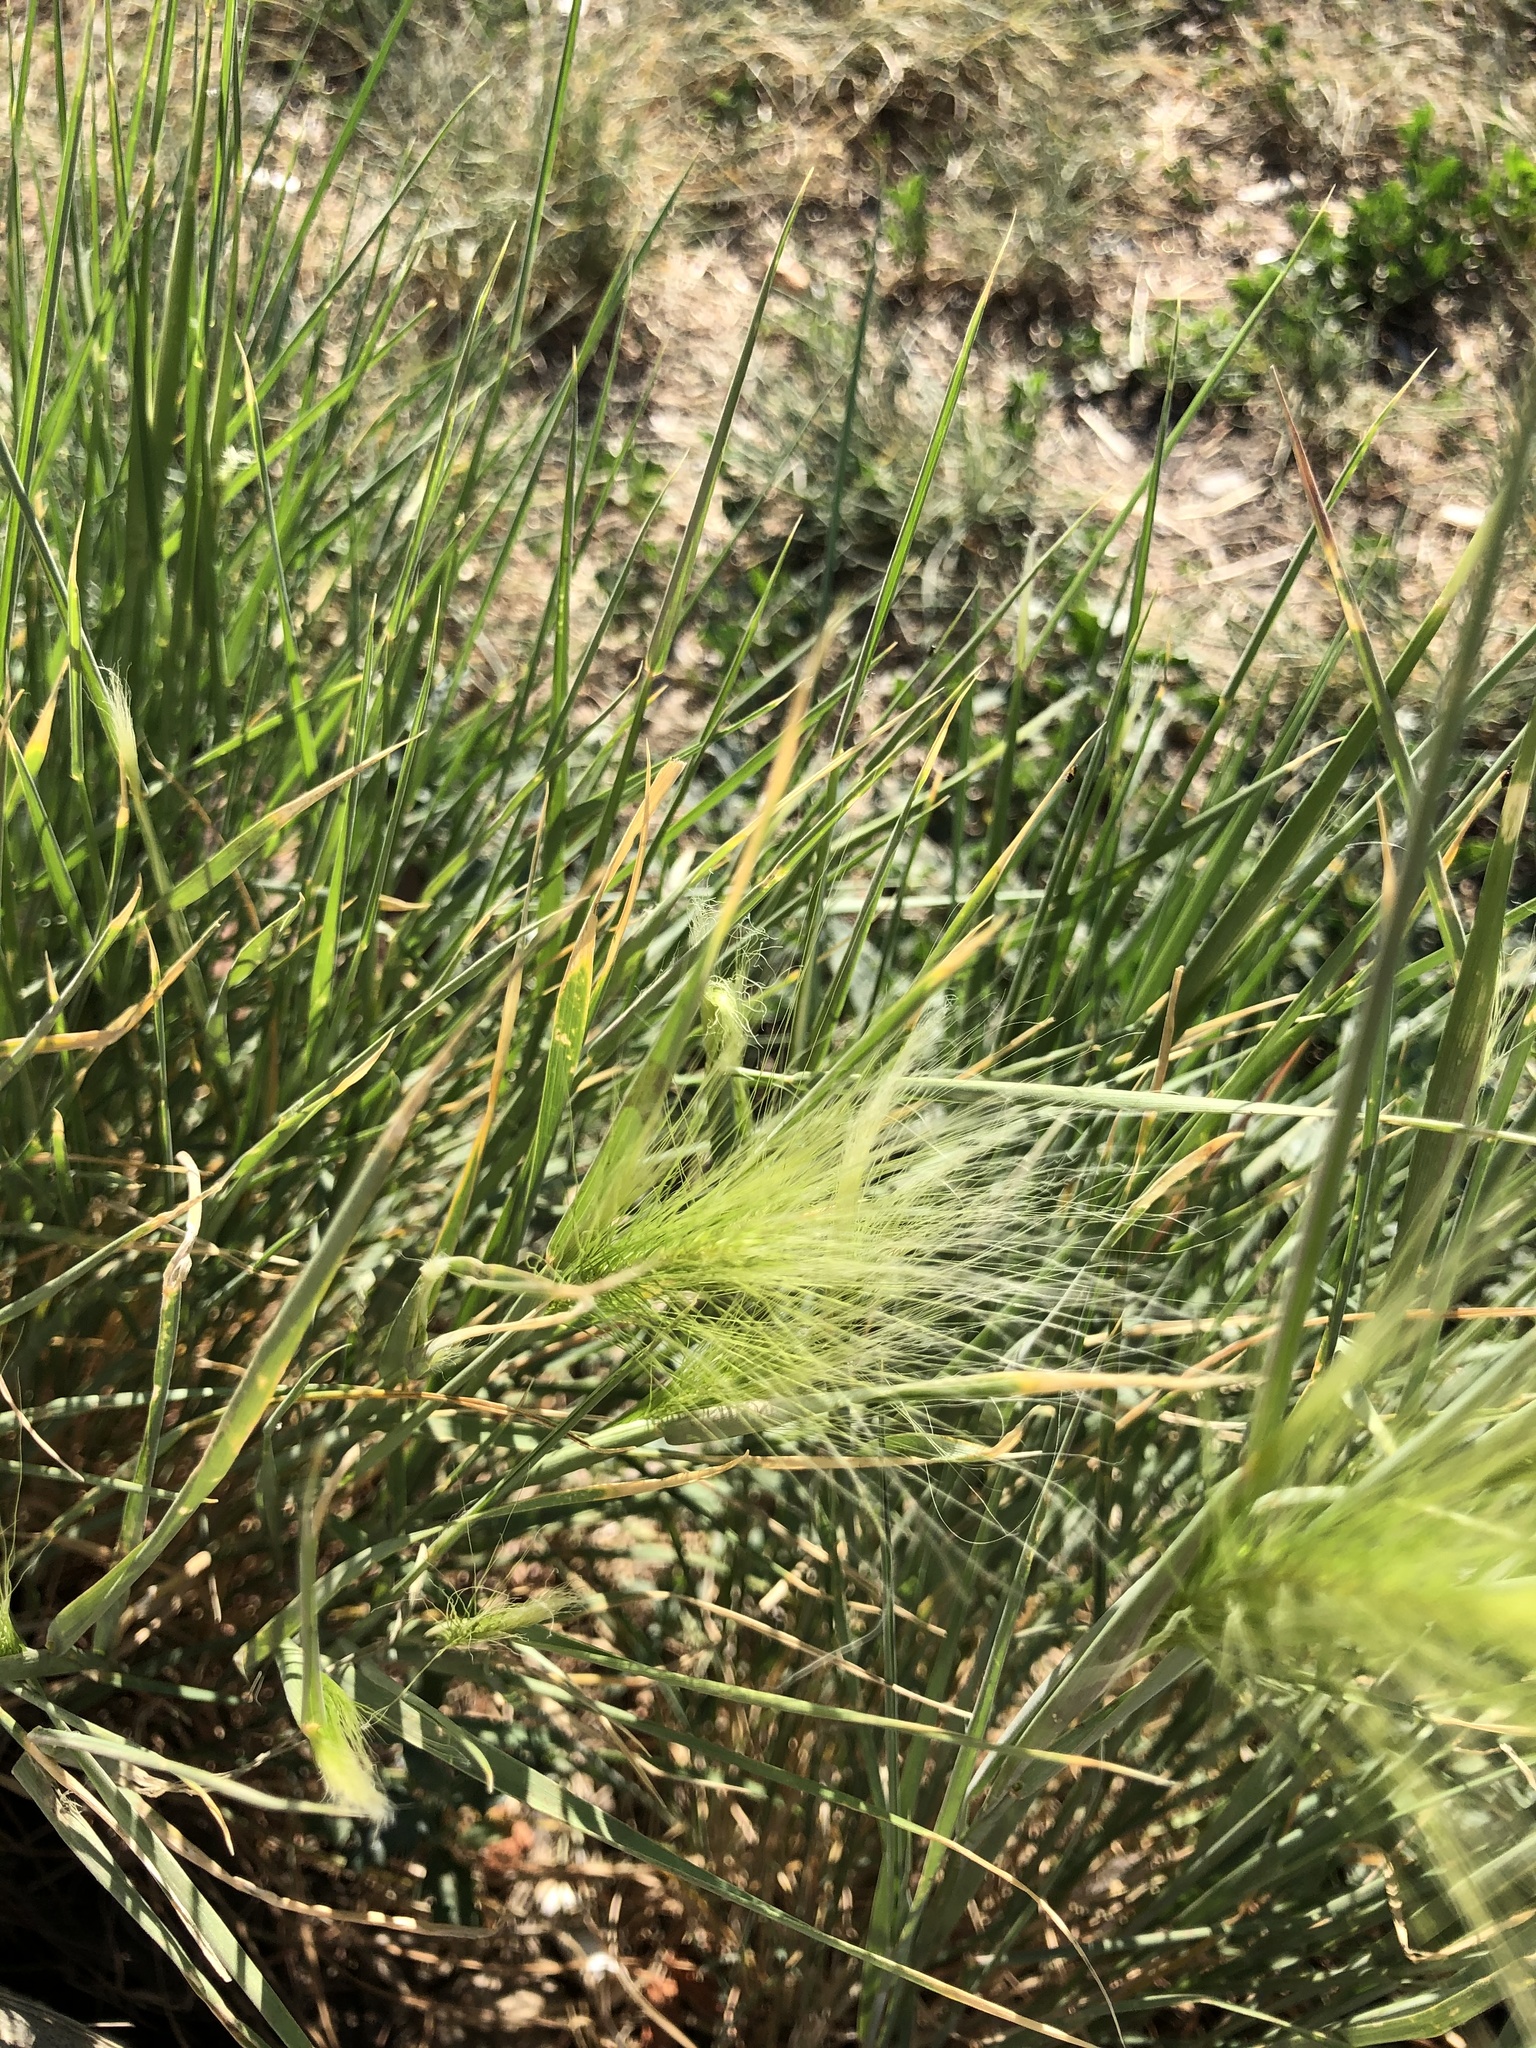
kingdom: Plantae
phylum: Tracheophyta
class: Liliopsida
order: Poales
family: Poaceae
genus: Hordeum
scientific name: Hordeum jubatum
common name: Foxtail barley
